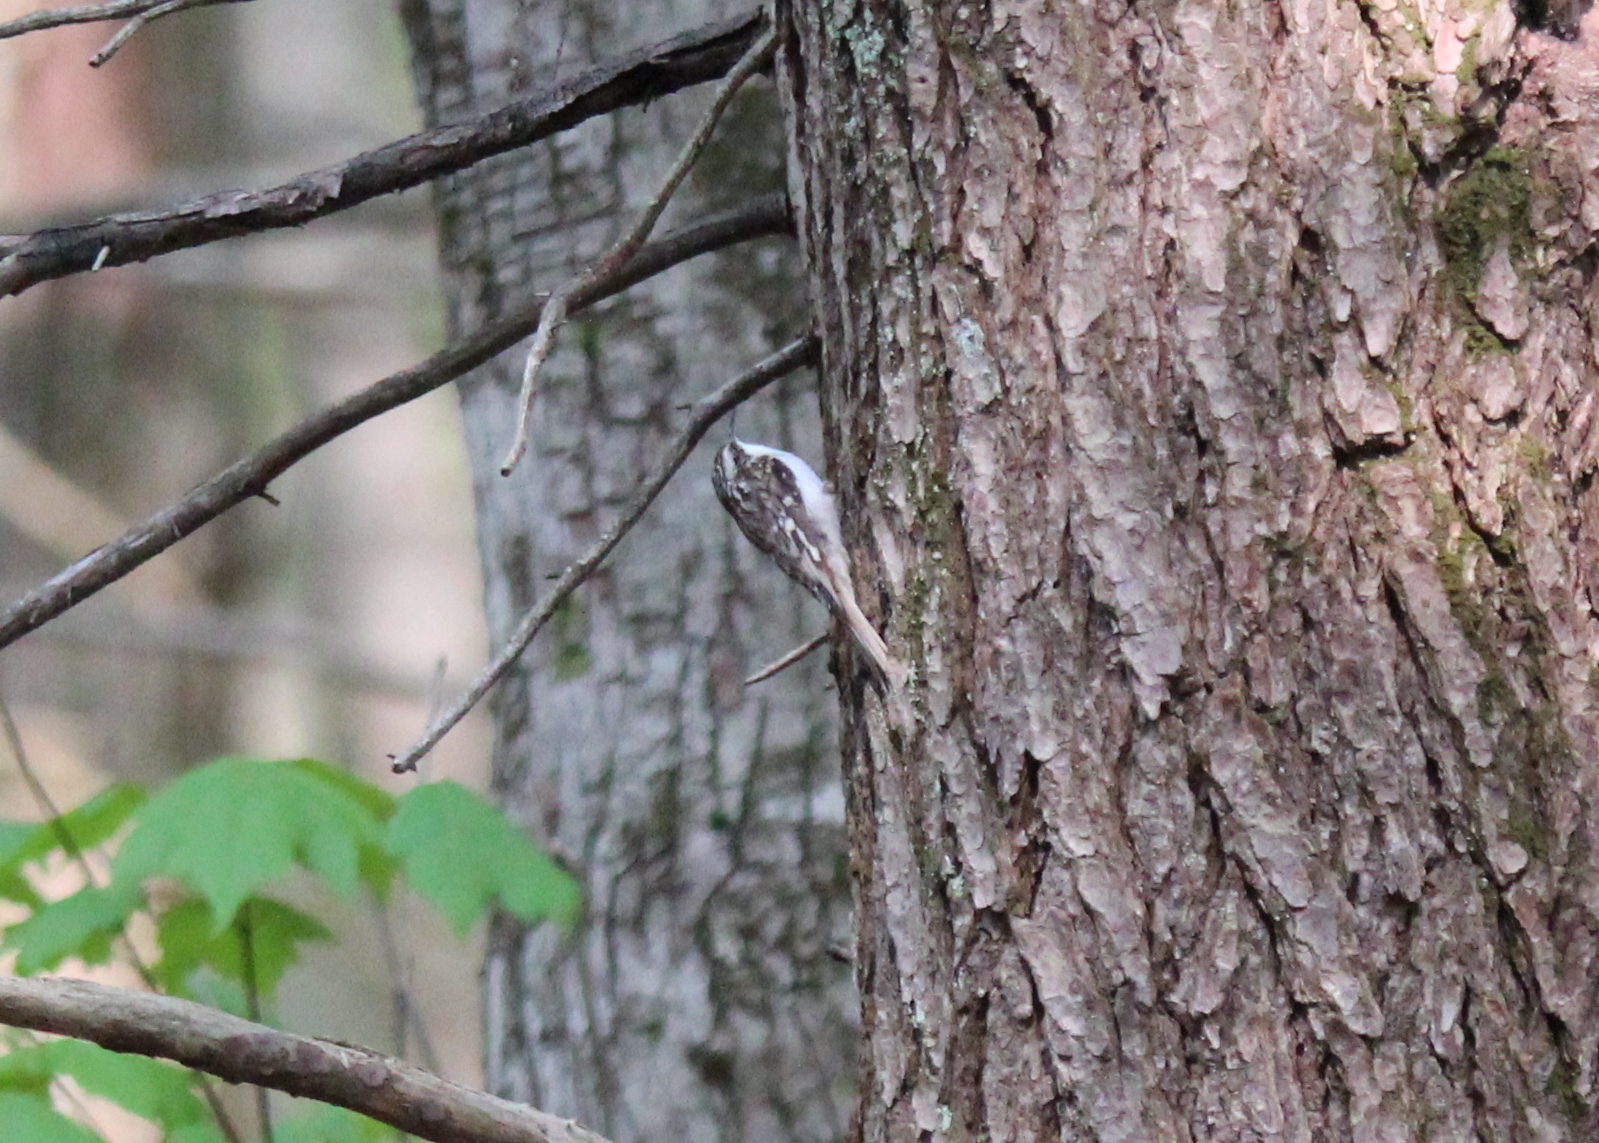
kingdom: Animalia
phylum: Chordata
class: Aves
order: Passeriformes
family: Certhiidae
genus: Certhia
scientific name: Certhia americana
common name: Brown creeper
